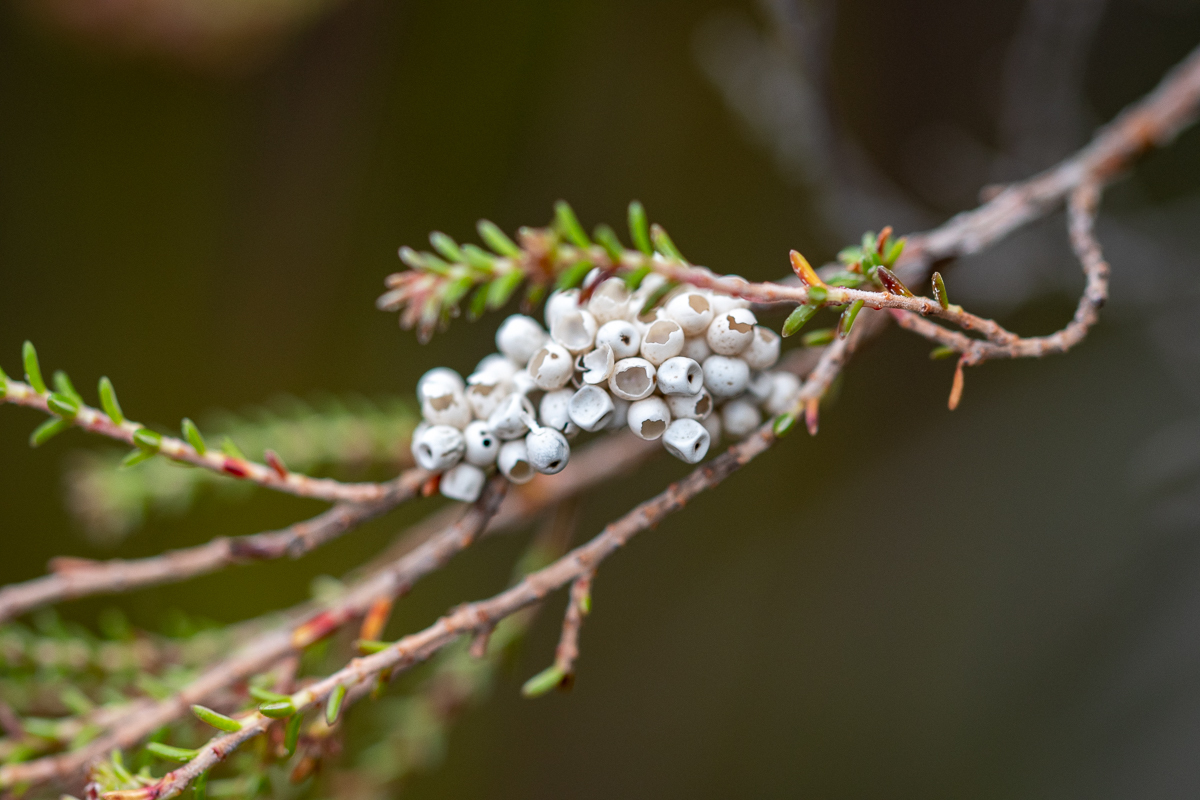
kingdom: Animalia
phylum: Arthropoda
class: Insecta
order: Lepidoptera
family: Lasiocampidae
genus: Eutricha
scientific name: Eutricha capensis
